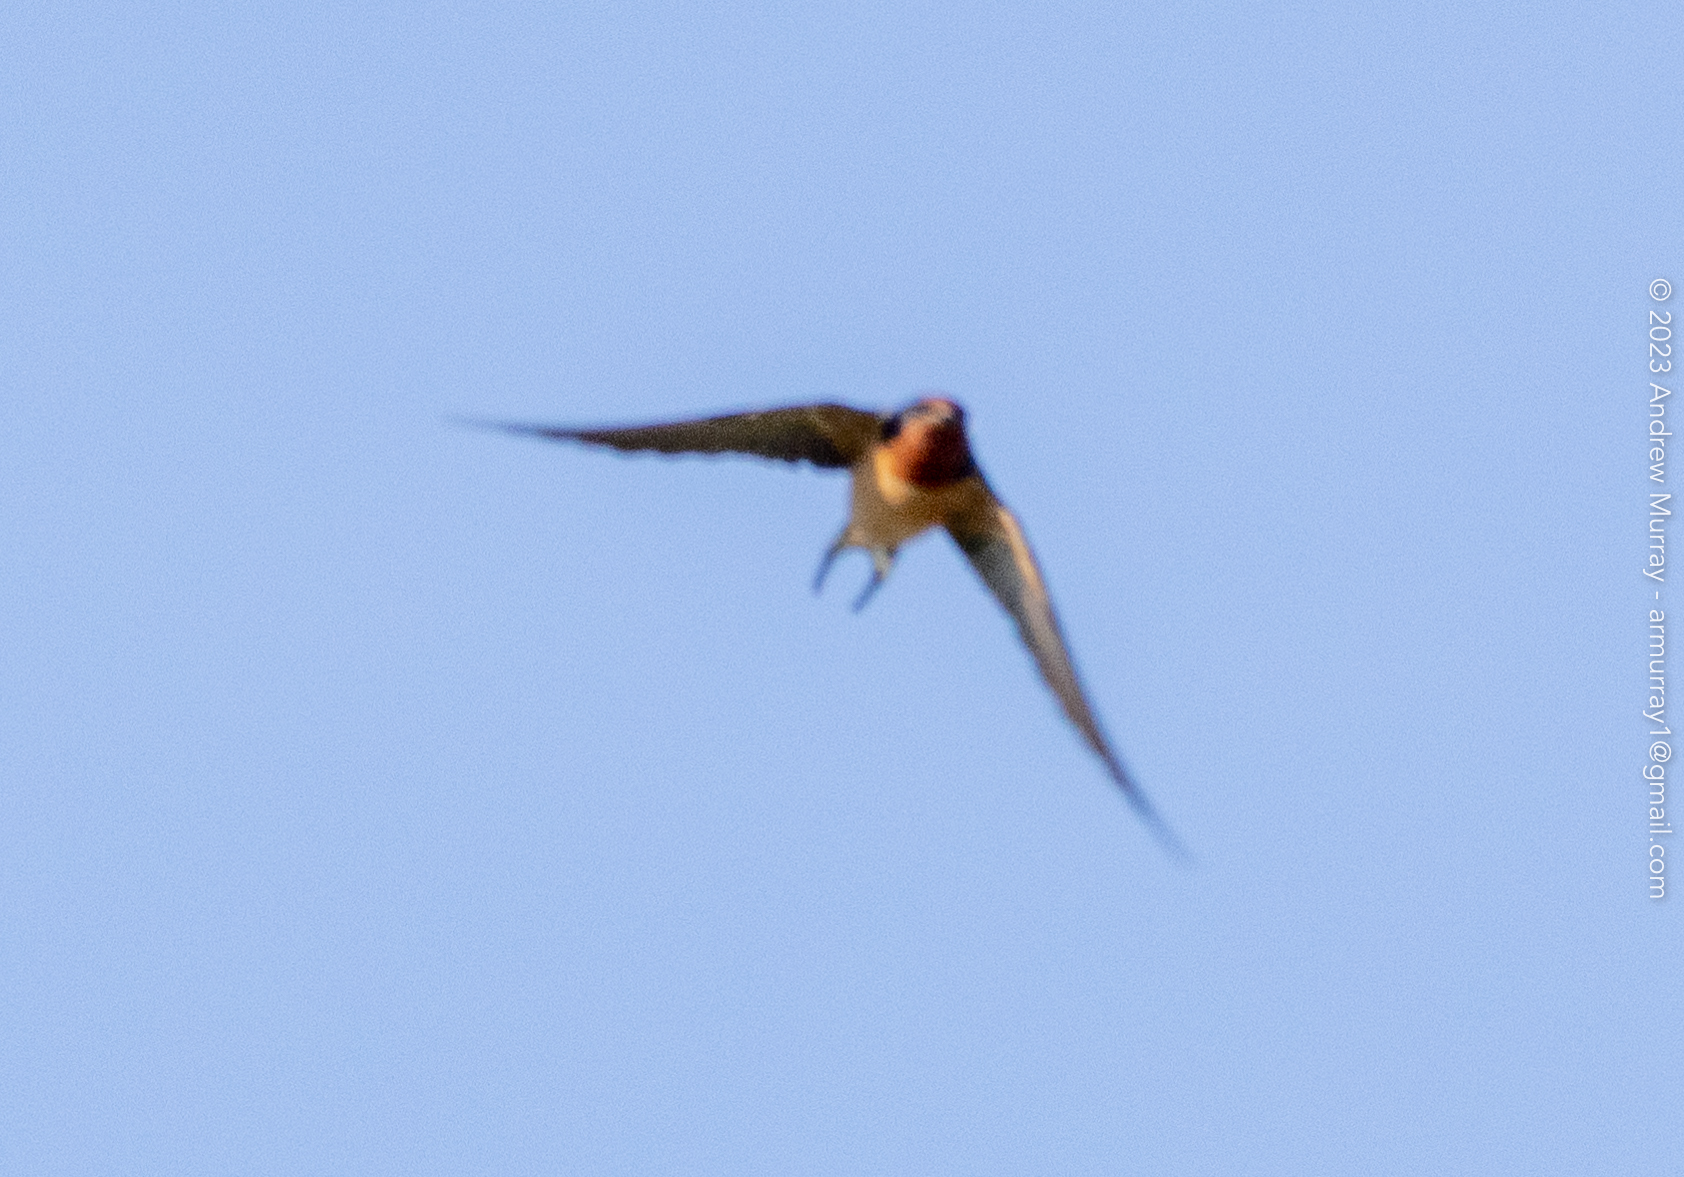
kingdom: Animalia
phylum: Chordata
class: Aves
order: Passeriformes
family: Hirundinidae
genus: Hirundo
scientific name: Hirundo rustica
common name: Barn swallow
